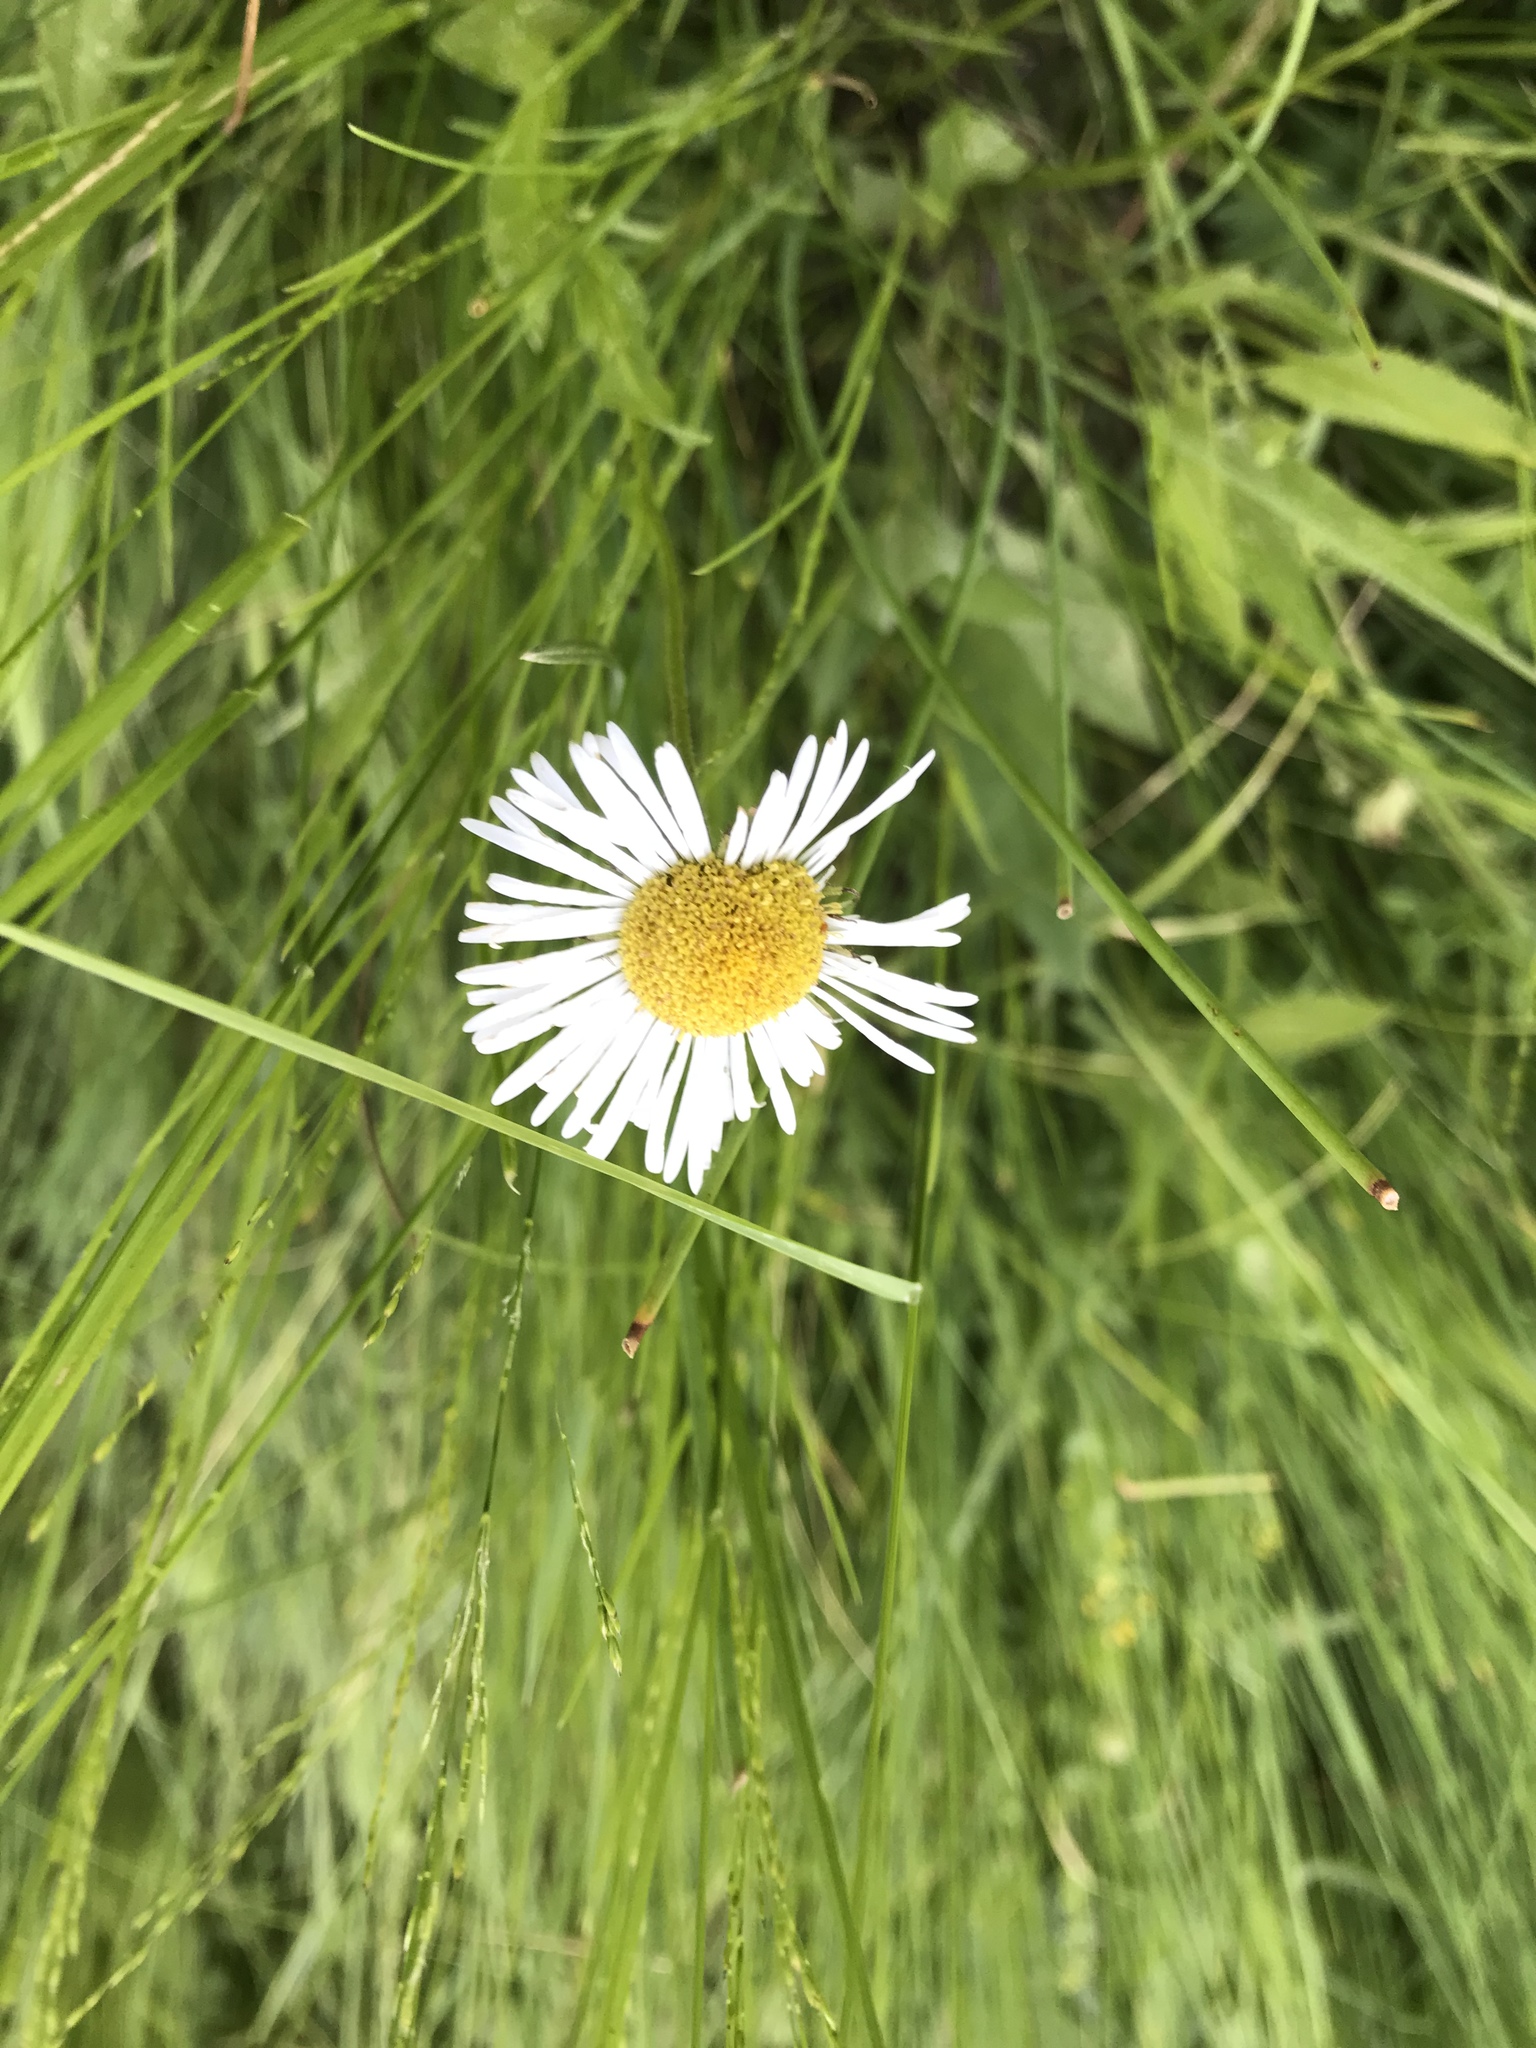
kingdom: Plantae
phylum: Tracheophyta
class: Magnoliopsida
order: Asterales
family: Asteraceae
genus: Erigeron
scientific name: Erigeron coulteri
